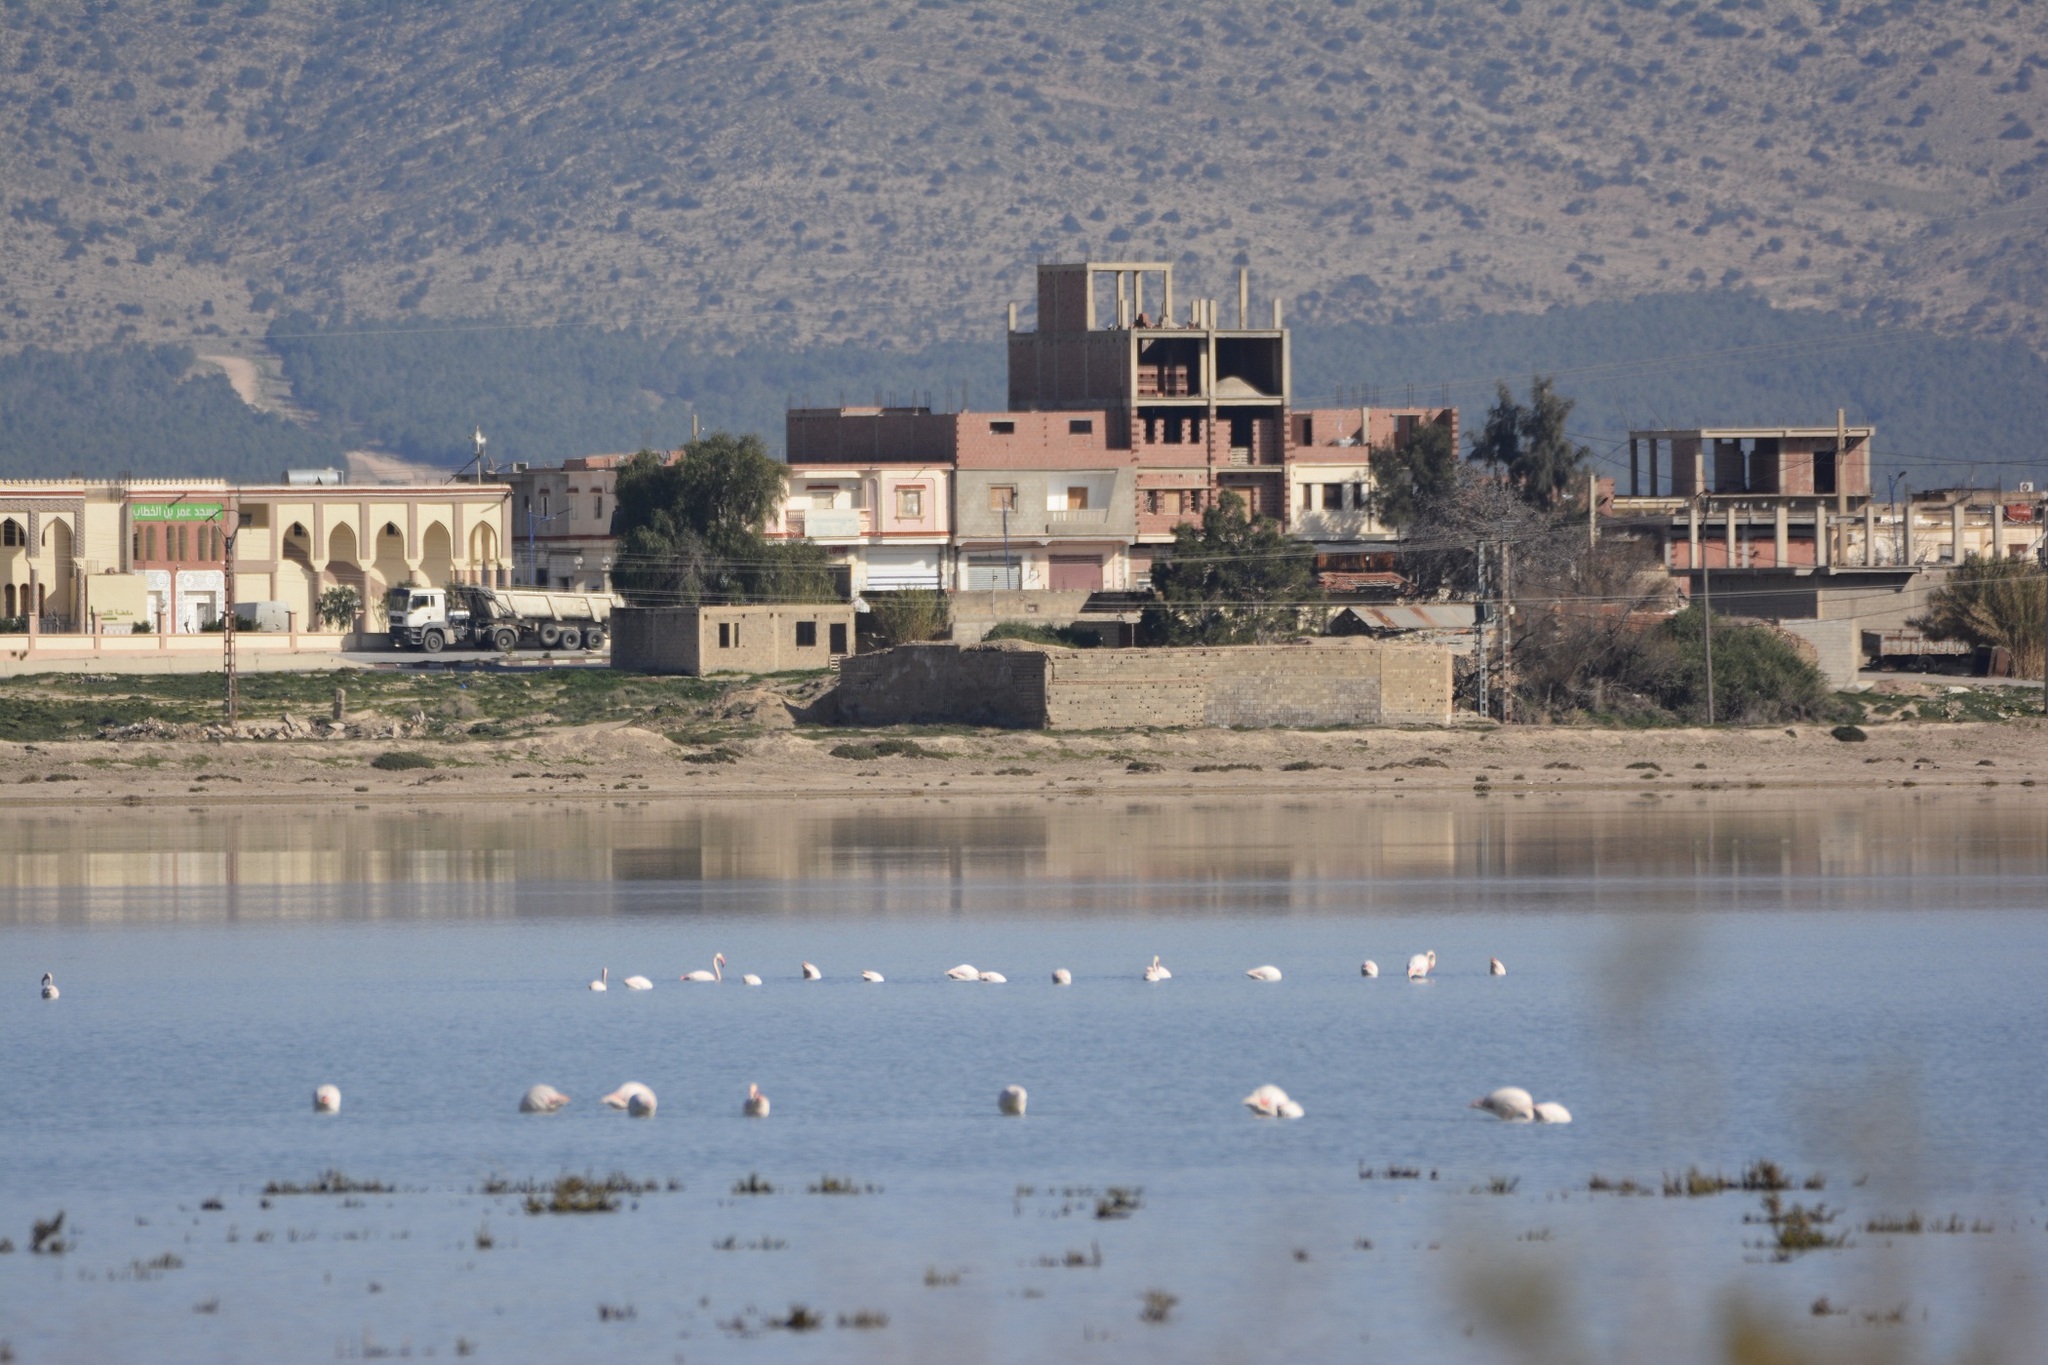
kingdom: Animalia
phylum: Chordata
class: Aves
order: Phoenicopteriformes
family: Phoenicopteridae
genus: Phoenicopterus
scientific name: Phoenicopterus roseus
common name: Greater flamingo
